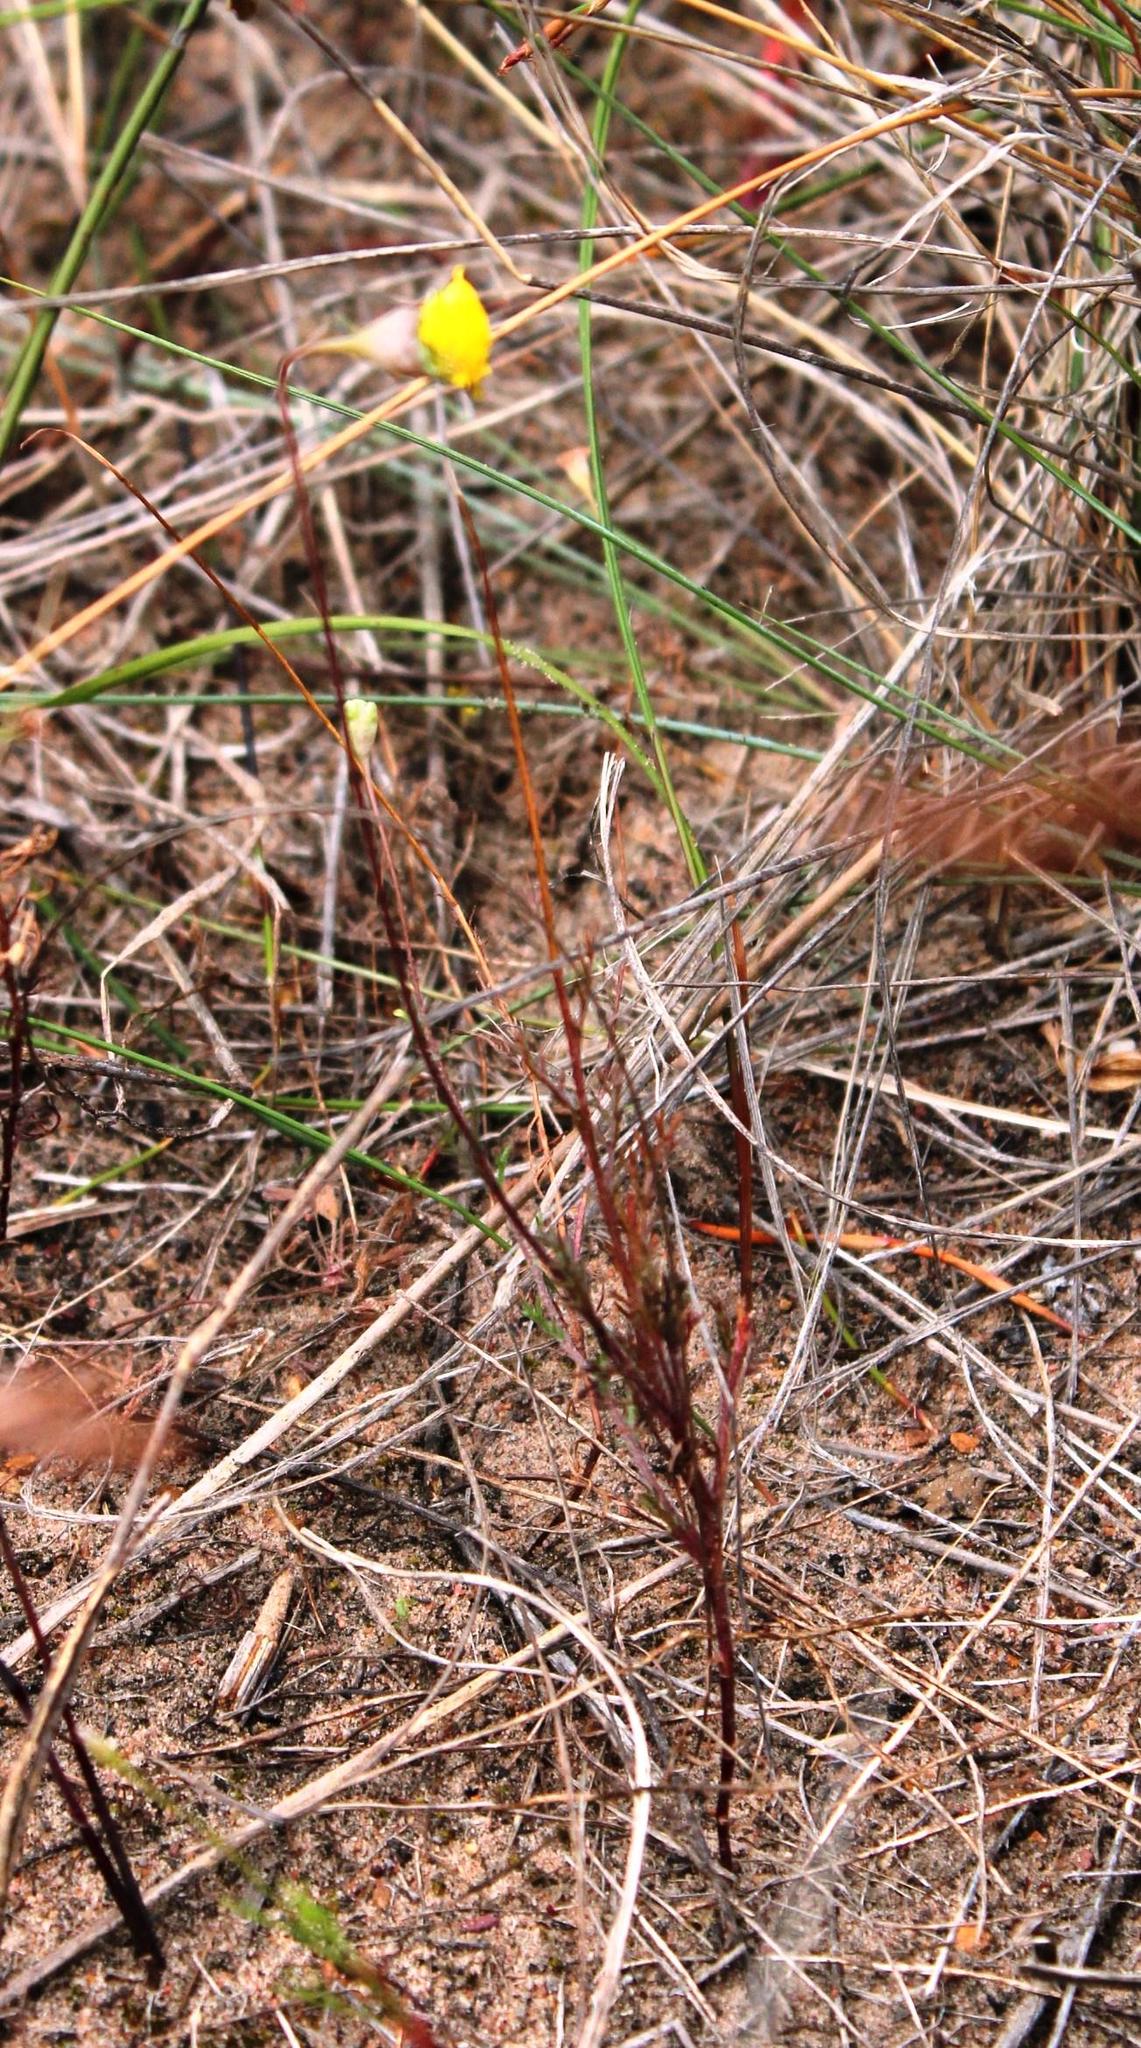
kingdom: Plantae
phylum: Tracheophyta
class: Magnoliopsida
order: Asterales
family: Asteraceae
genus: Cotula
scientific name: Cotula pruinosa
